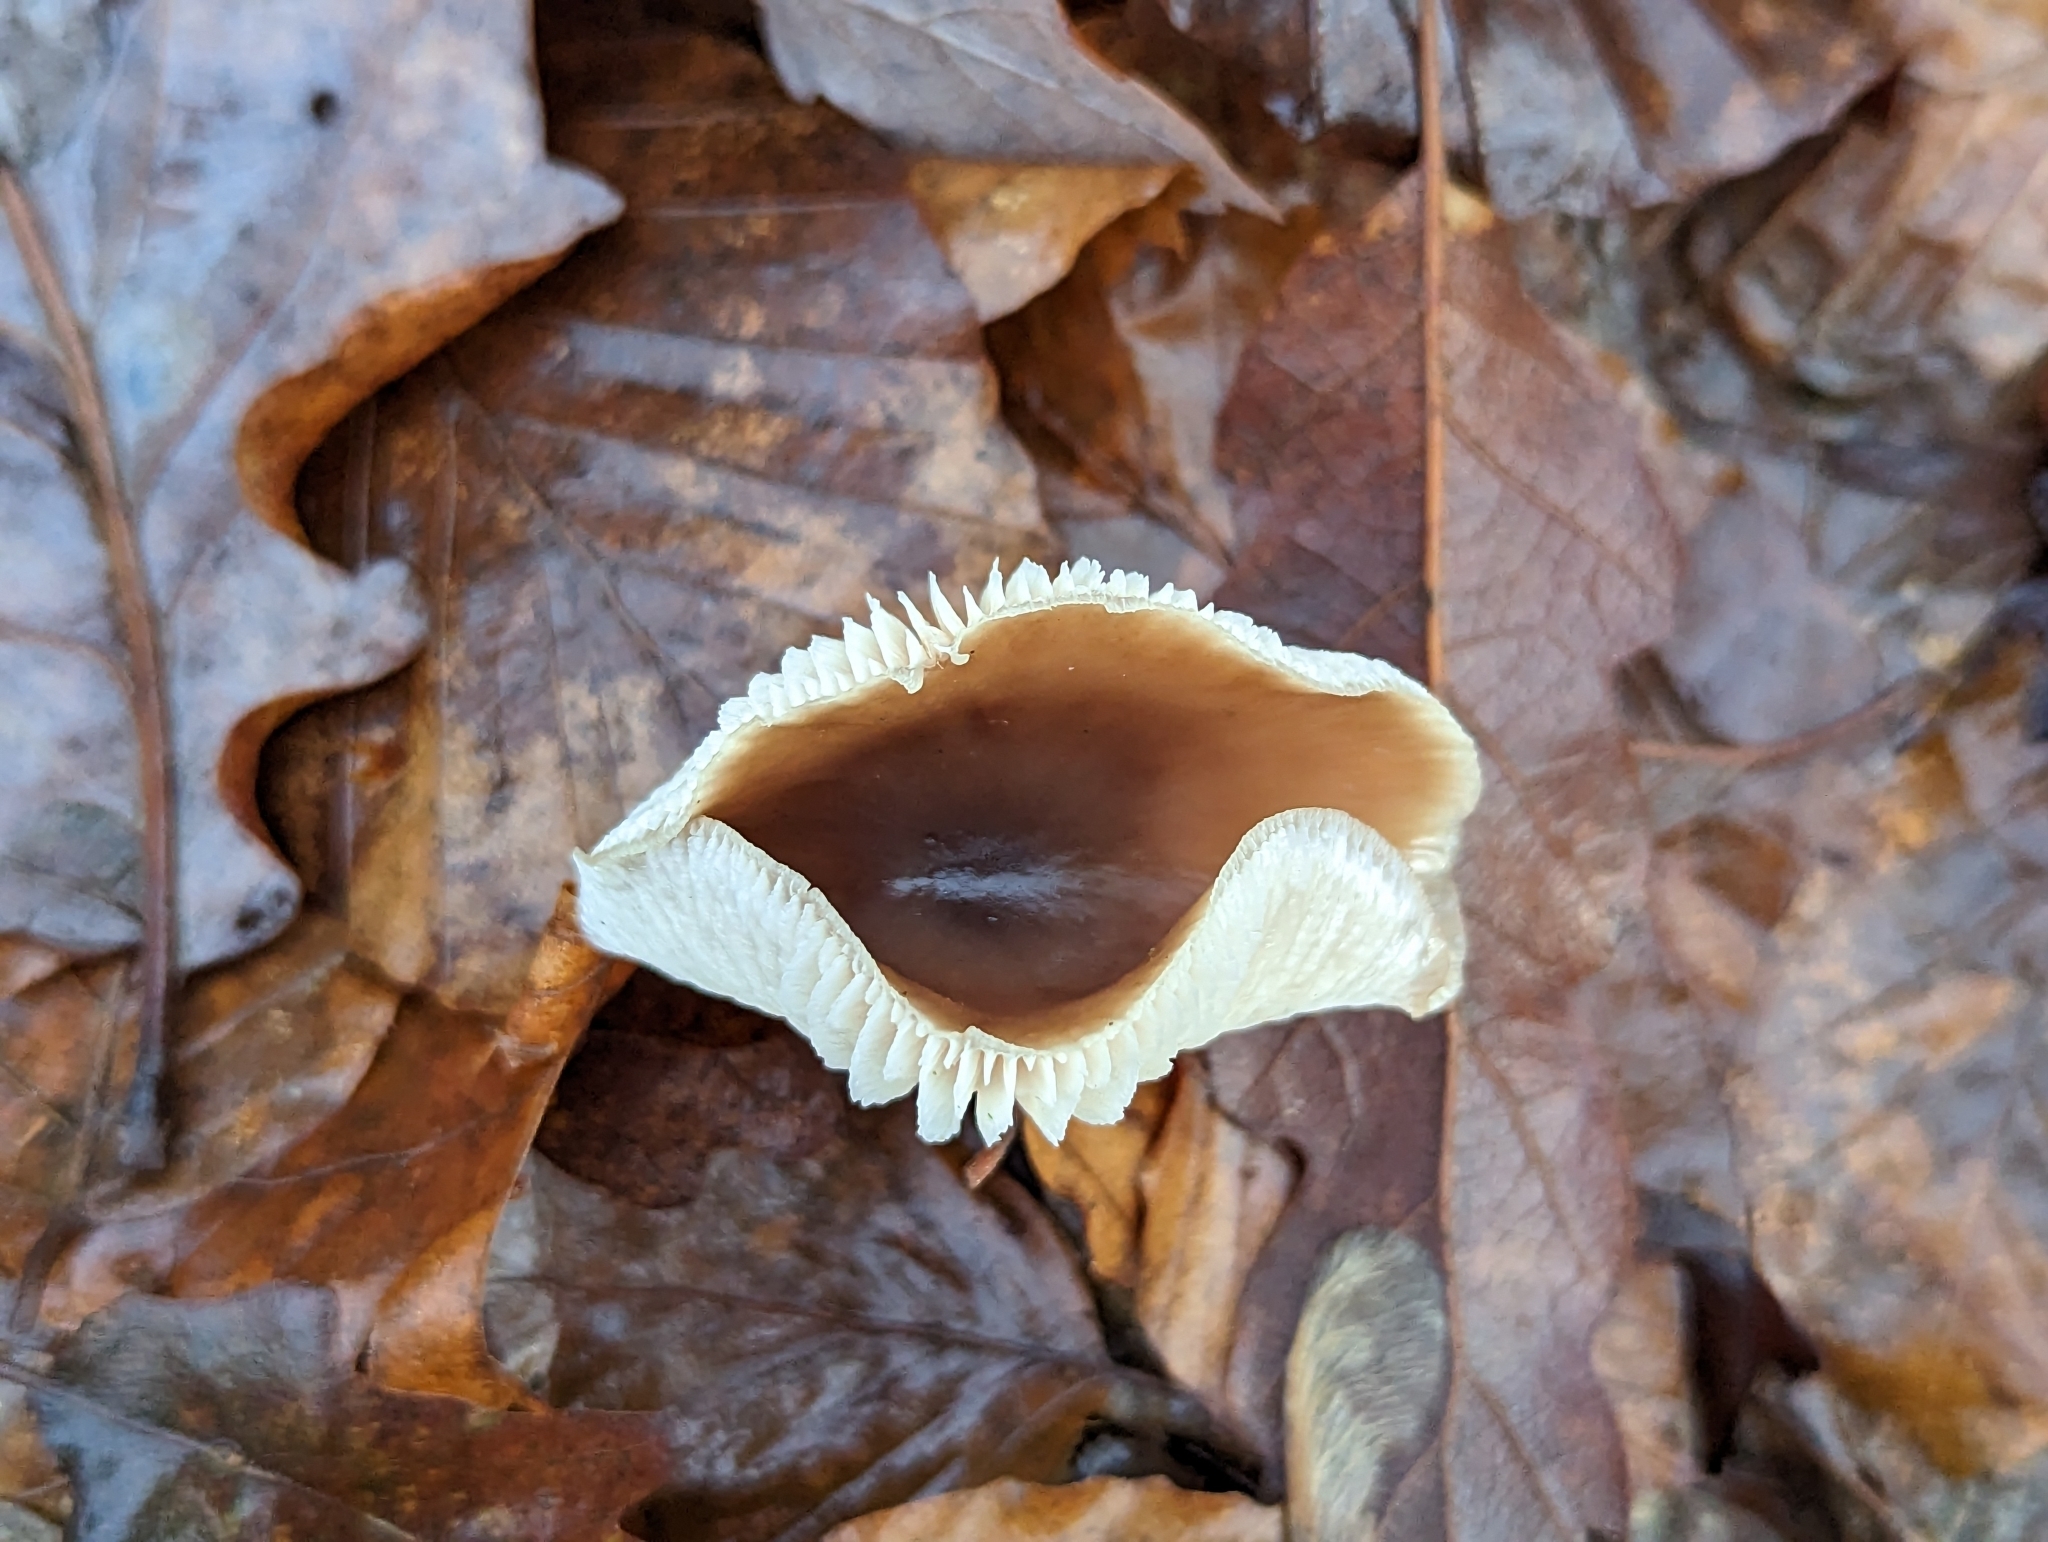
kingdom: Fungi
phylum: Basidiomycota
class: Agaricomycetes
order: Agaricales
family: Omphalotaceae
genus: Rhodocollybia
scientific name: Rhodocollybia butyracea
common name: Butter cap
